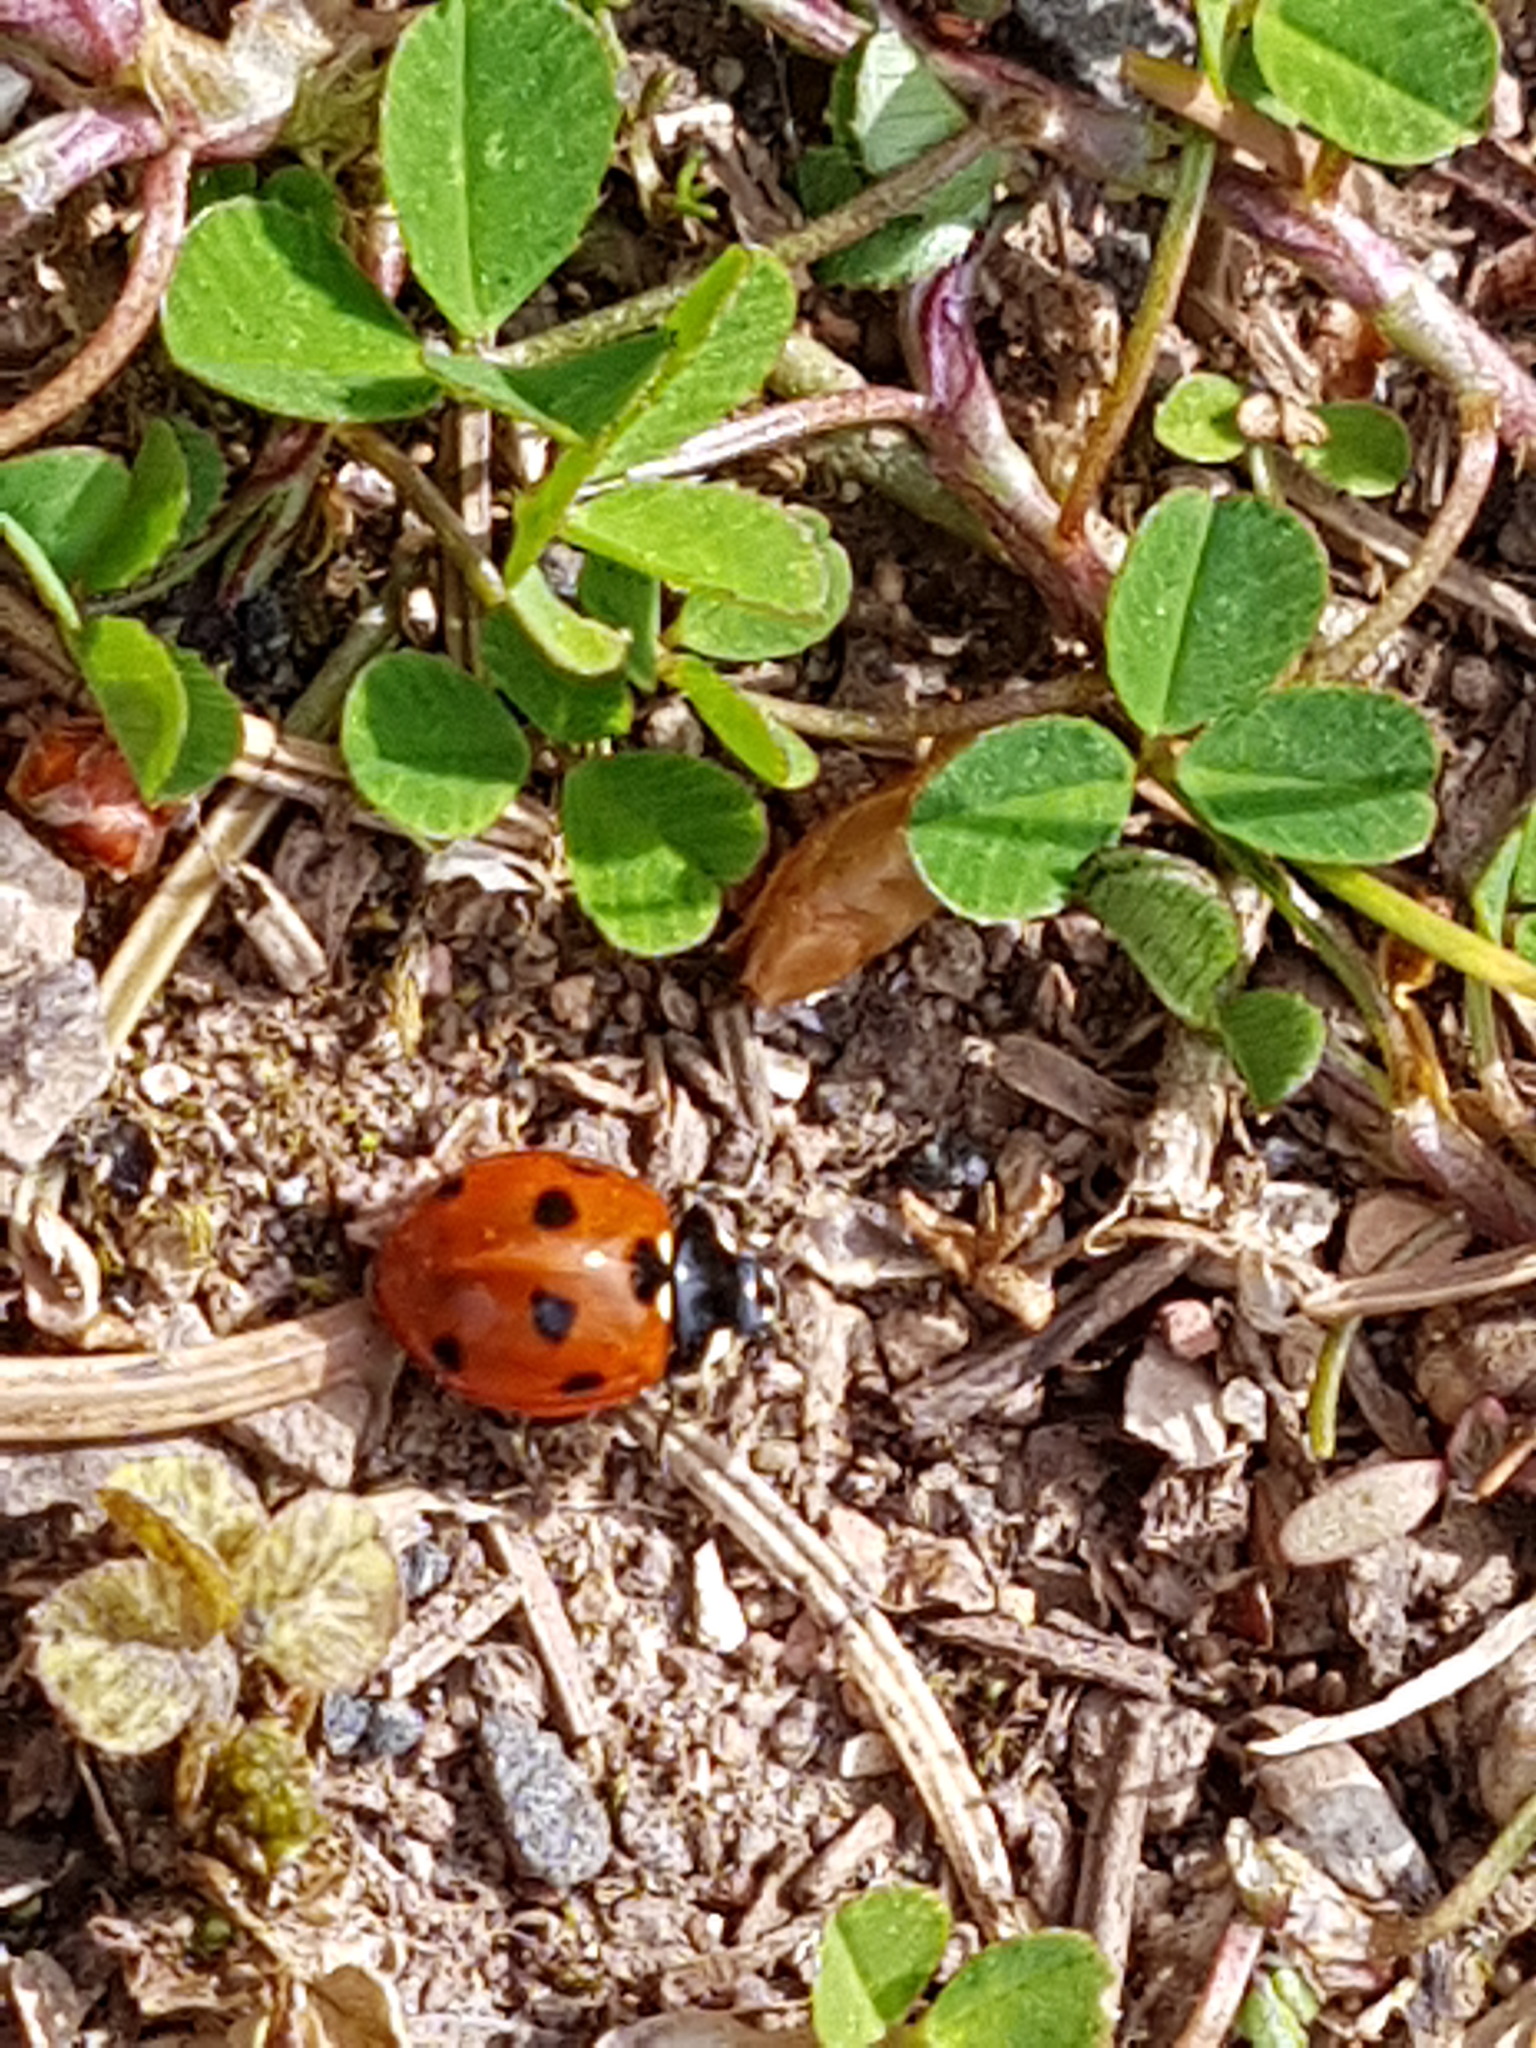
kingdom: Animalia
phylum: Arthropoda
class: Insecta
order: Coleoptera
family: Coccinellidae
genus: Coccinella
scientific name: Coccinella septempunctata
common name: Sevenspotted lady beetle
